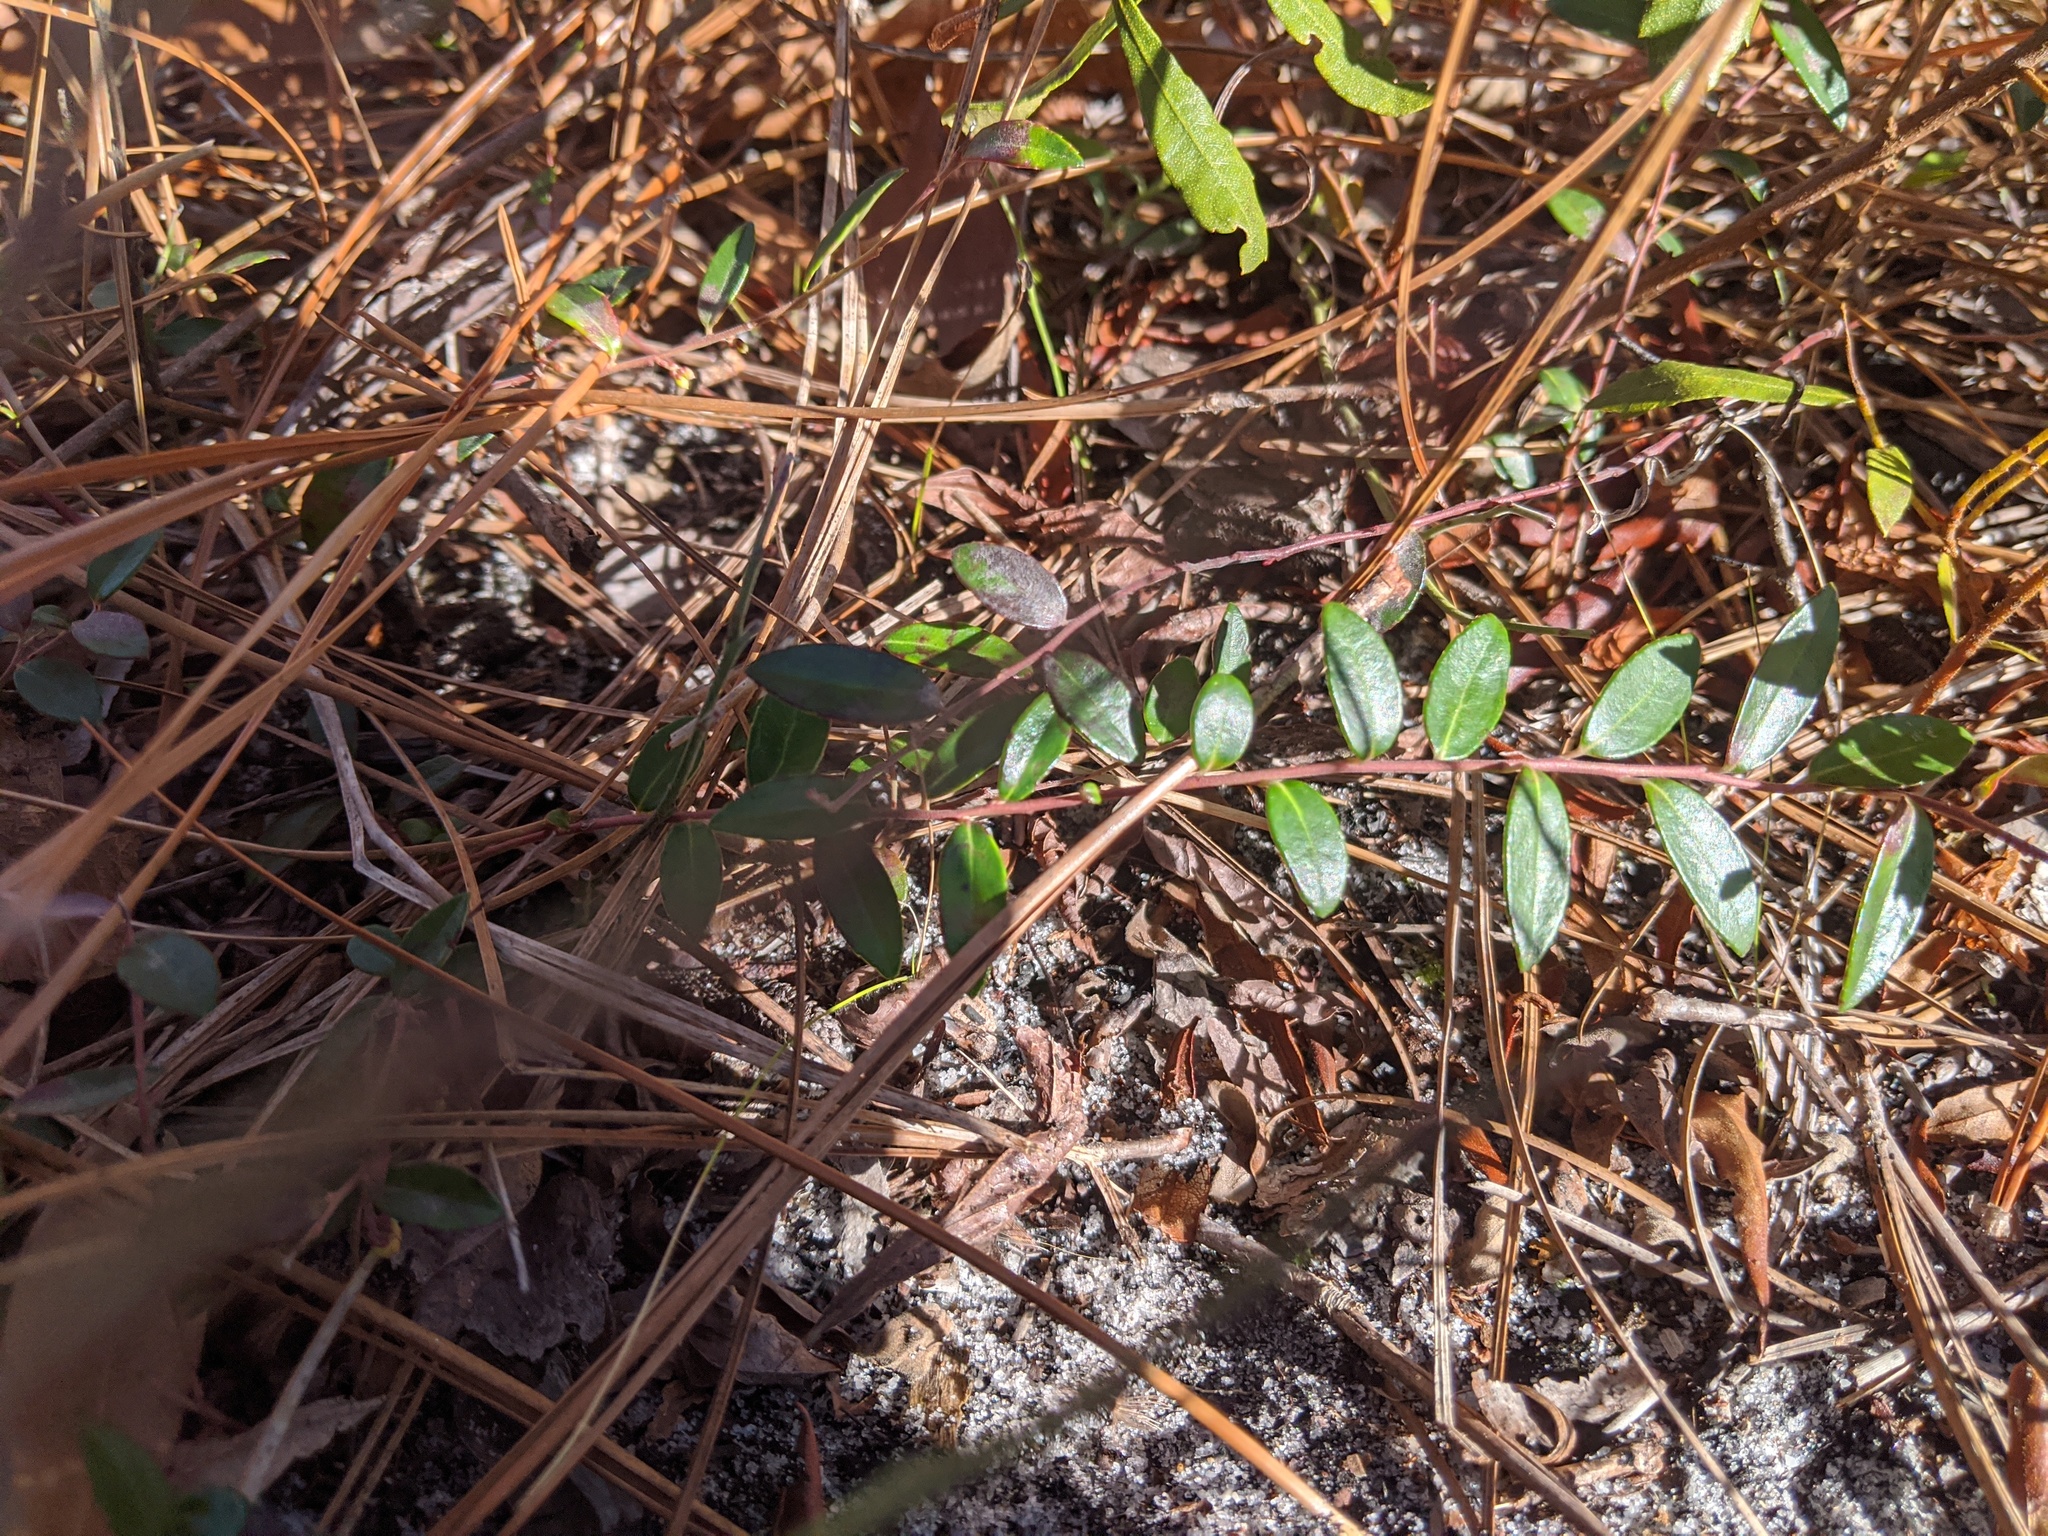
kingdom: Plantae
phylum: Tracheophyta
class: Magnoliopsida
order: Ericales
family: Ericaceae
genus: Vaccinium
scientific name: Vaccinium crassifolium
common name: Creeping blueberry
